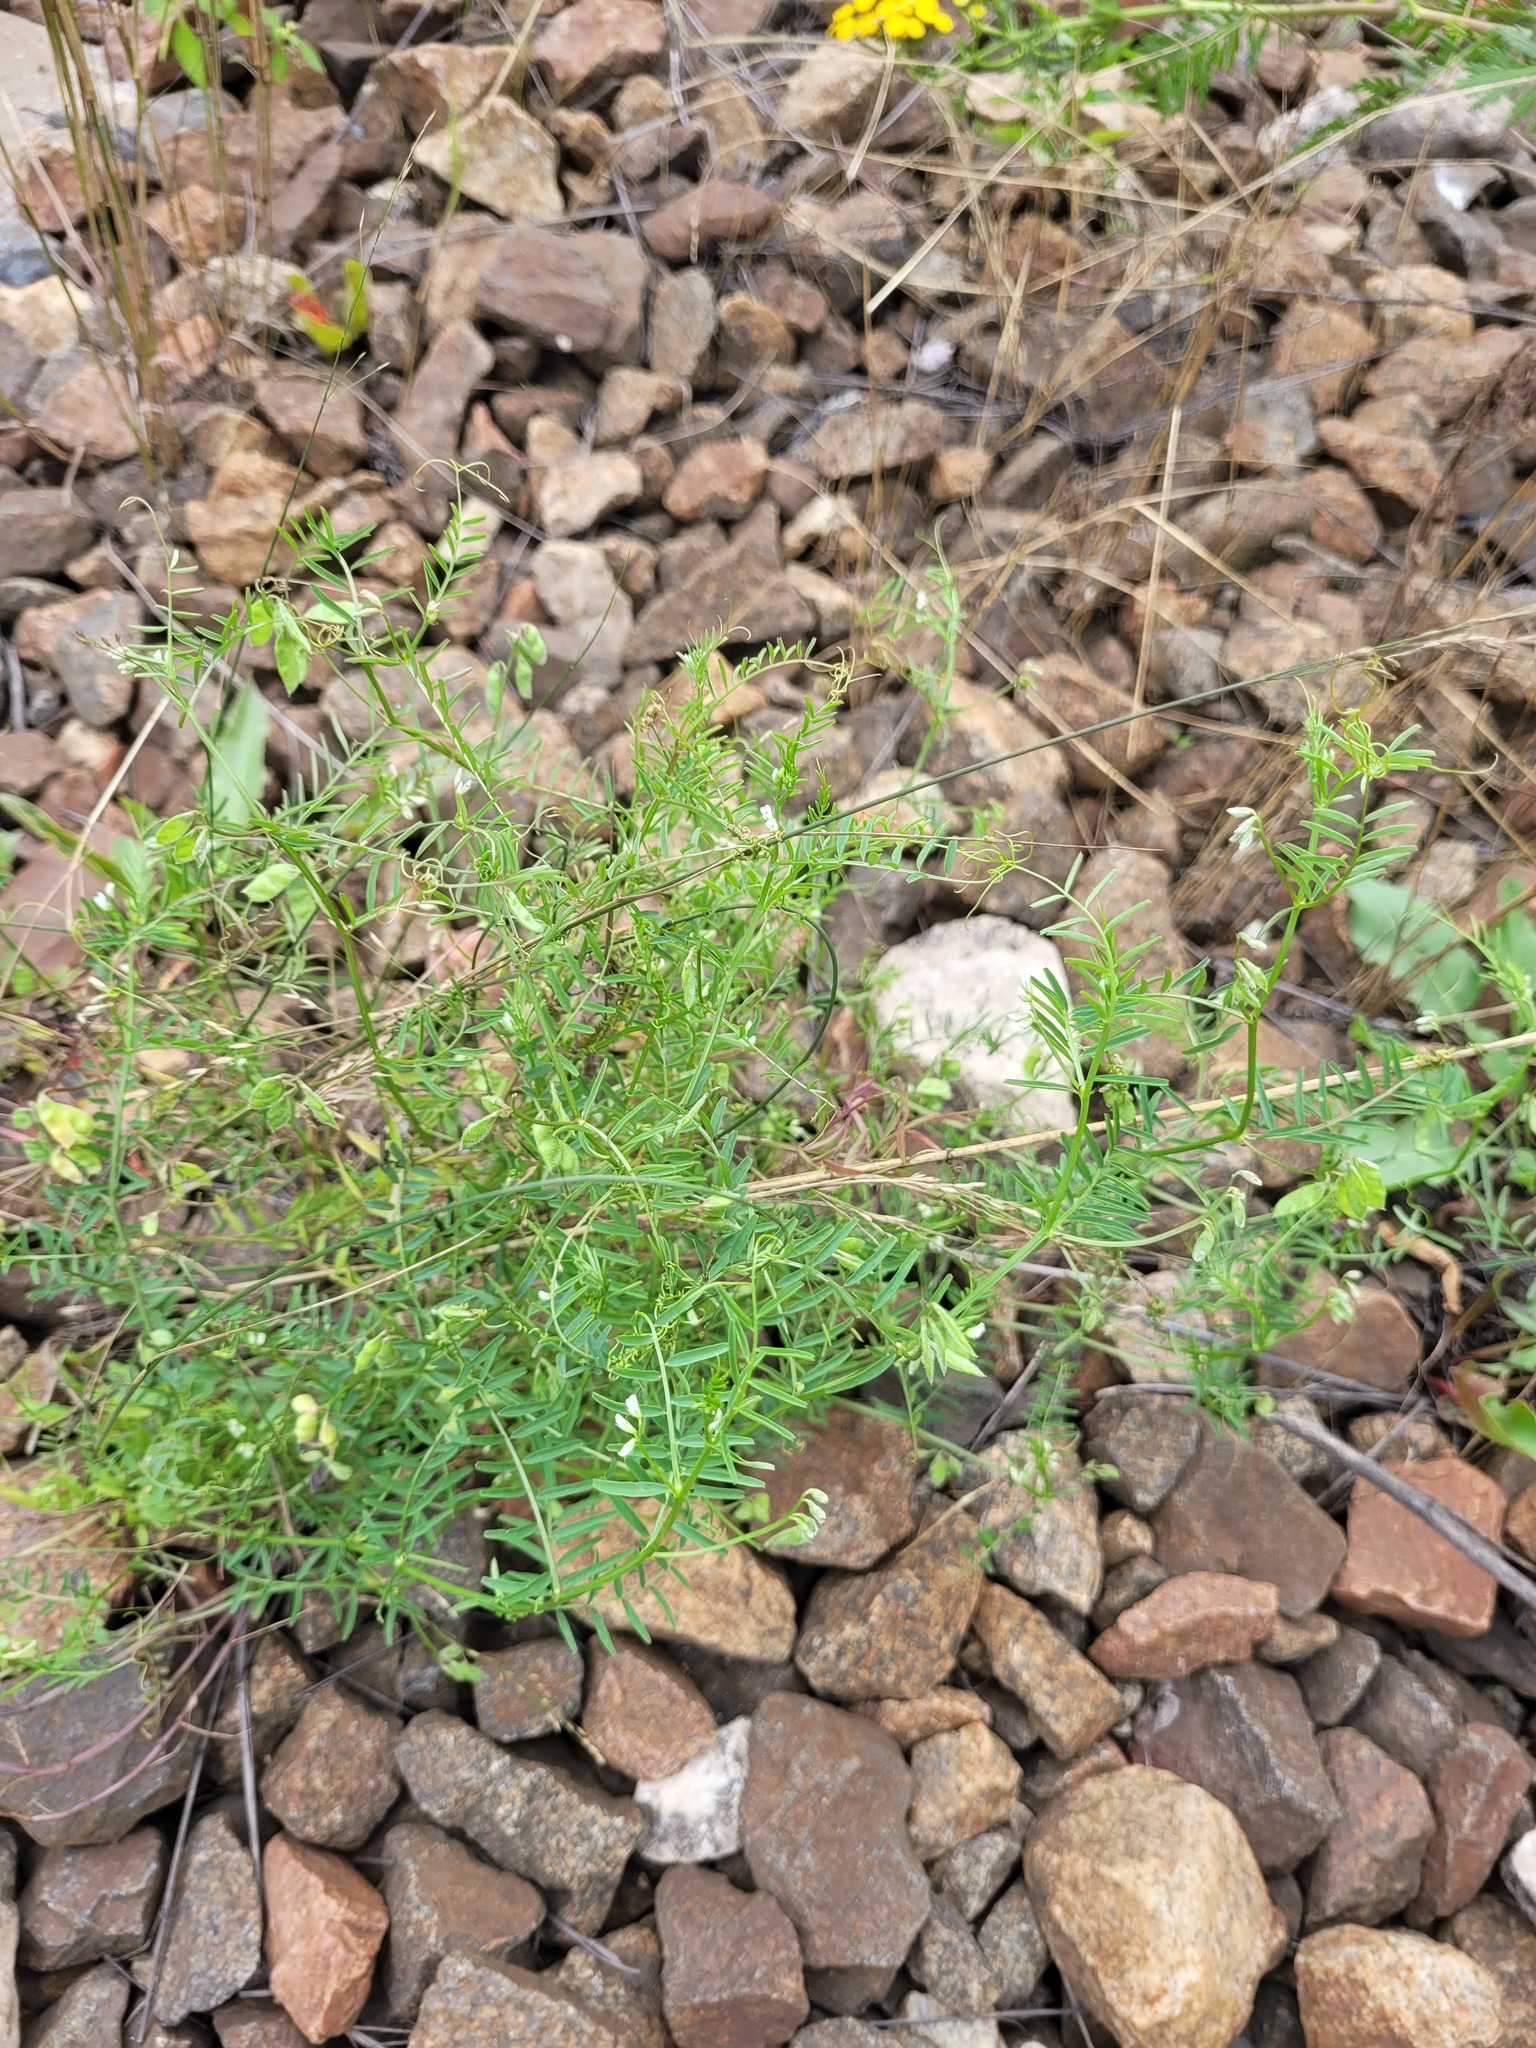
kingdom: Plantae
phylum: Tracheophyta
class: Magnoliopsida
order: Fabales
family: Fabaceae
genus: Vicia
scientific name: Vicia hirsuta
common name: Tiny vetch
